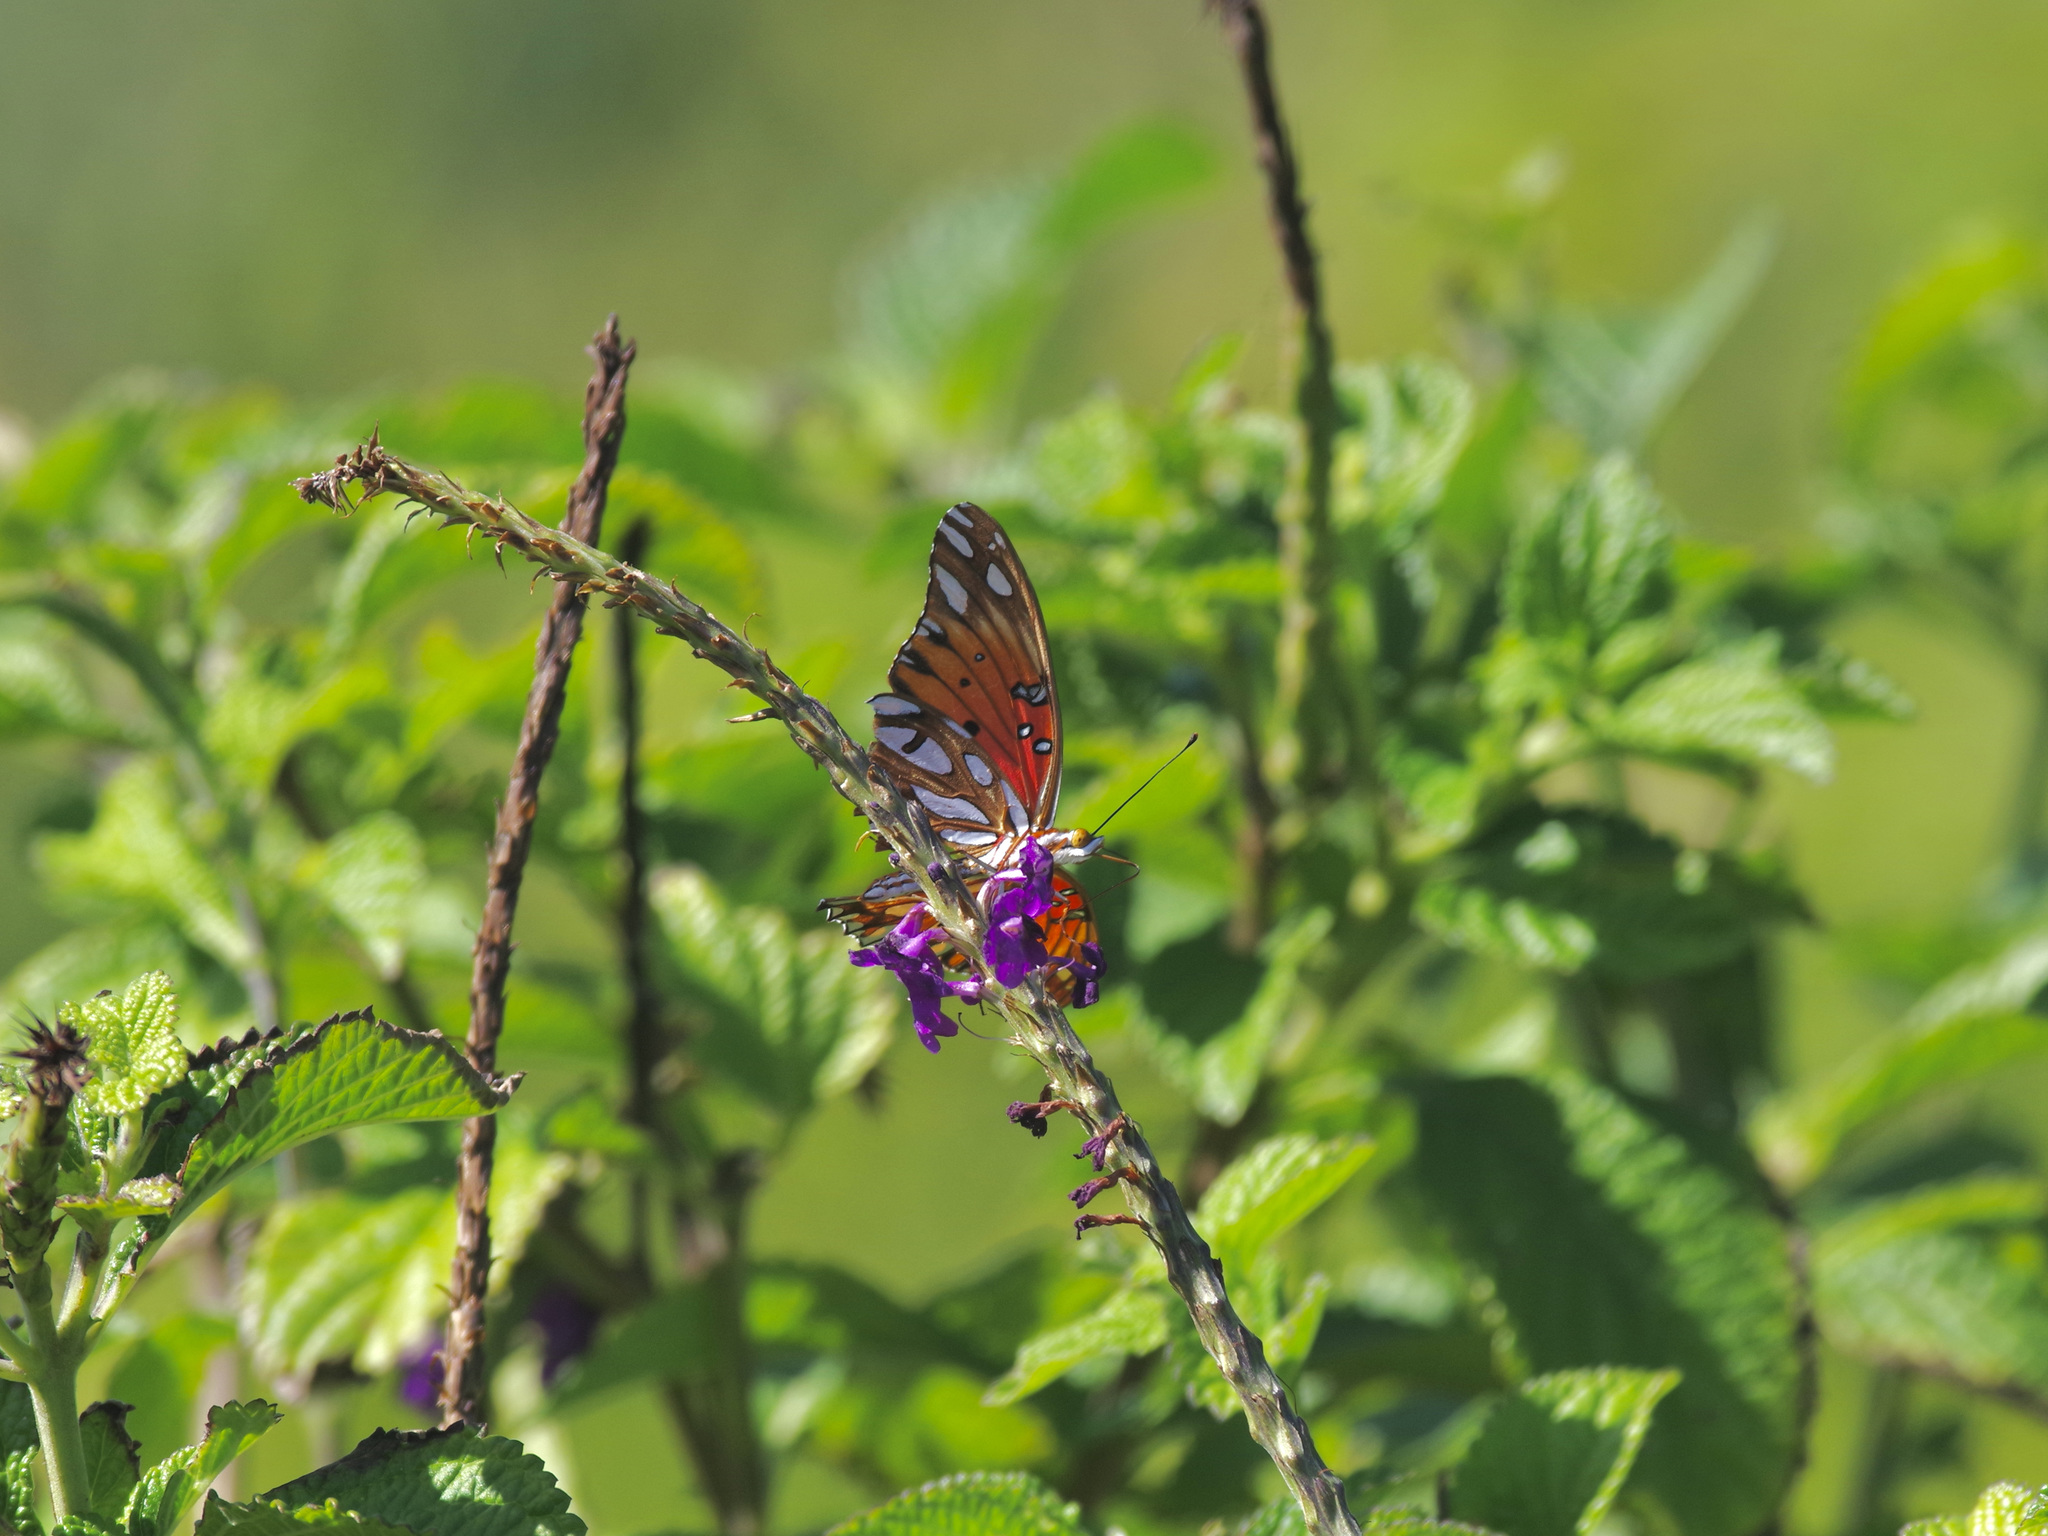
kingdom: Animalia
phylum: Arthropoda
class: Insecta
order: Lepidoptera
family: Nymphalidae
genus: Dione
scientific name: Dione vanillae
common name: Gulf fritillary
